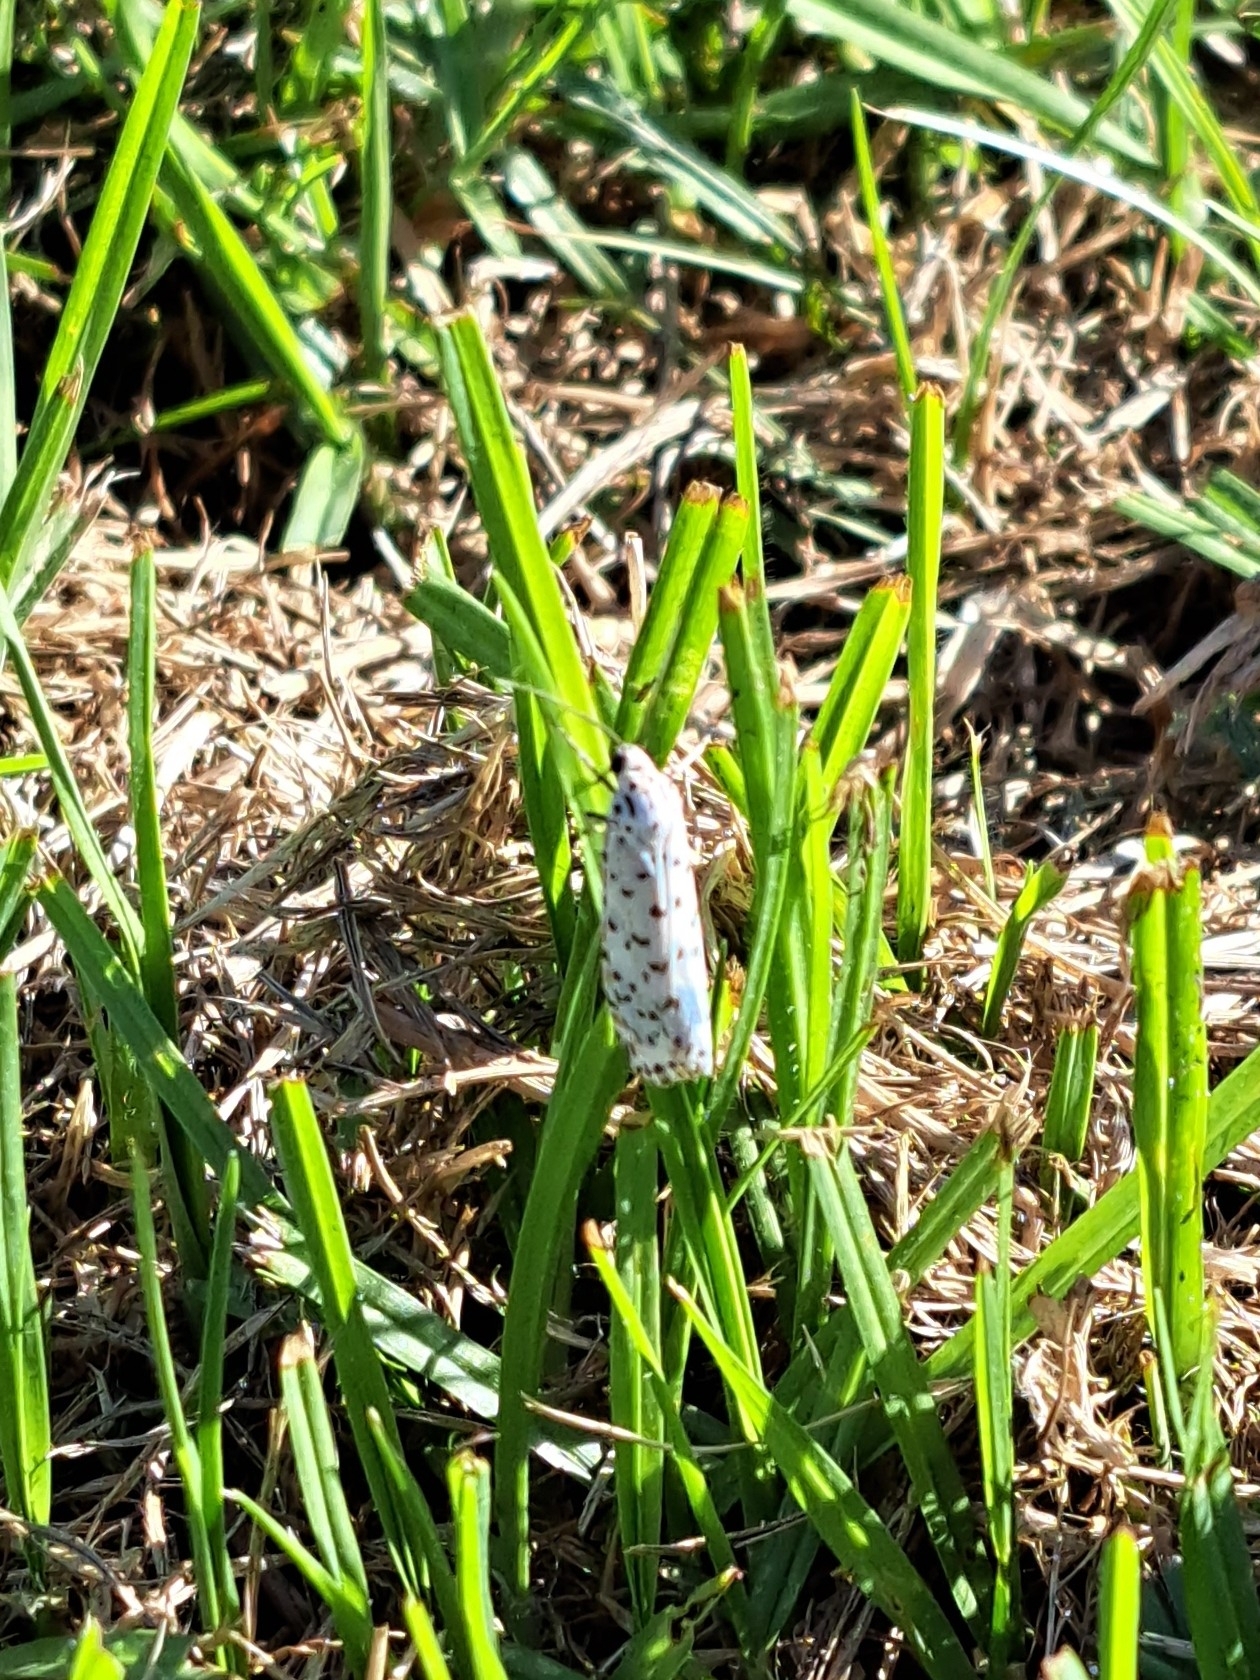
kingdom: Animalia
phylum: Arthropoda
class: Insecta
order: Lepidoptera
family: Erebidae
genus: Utetheisa
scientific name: Utetheisa pulchelloides
